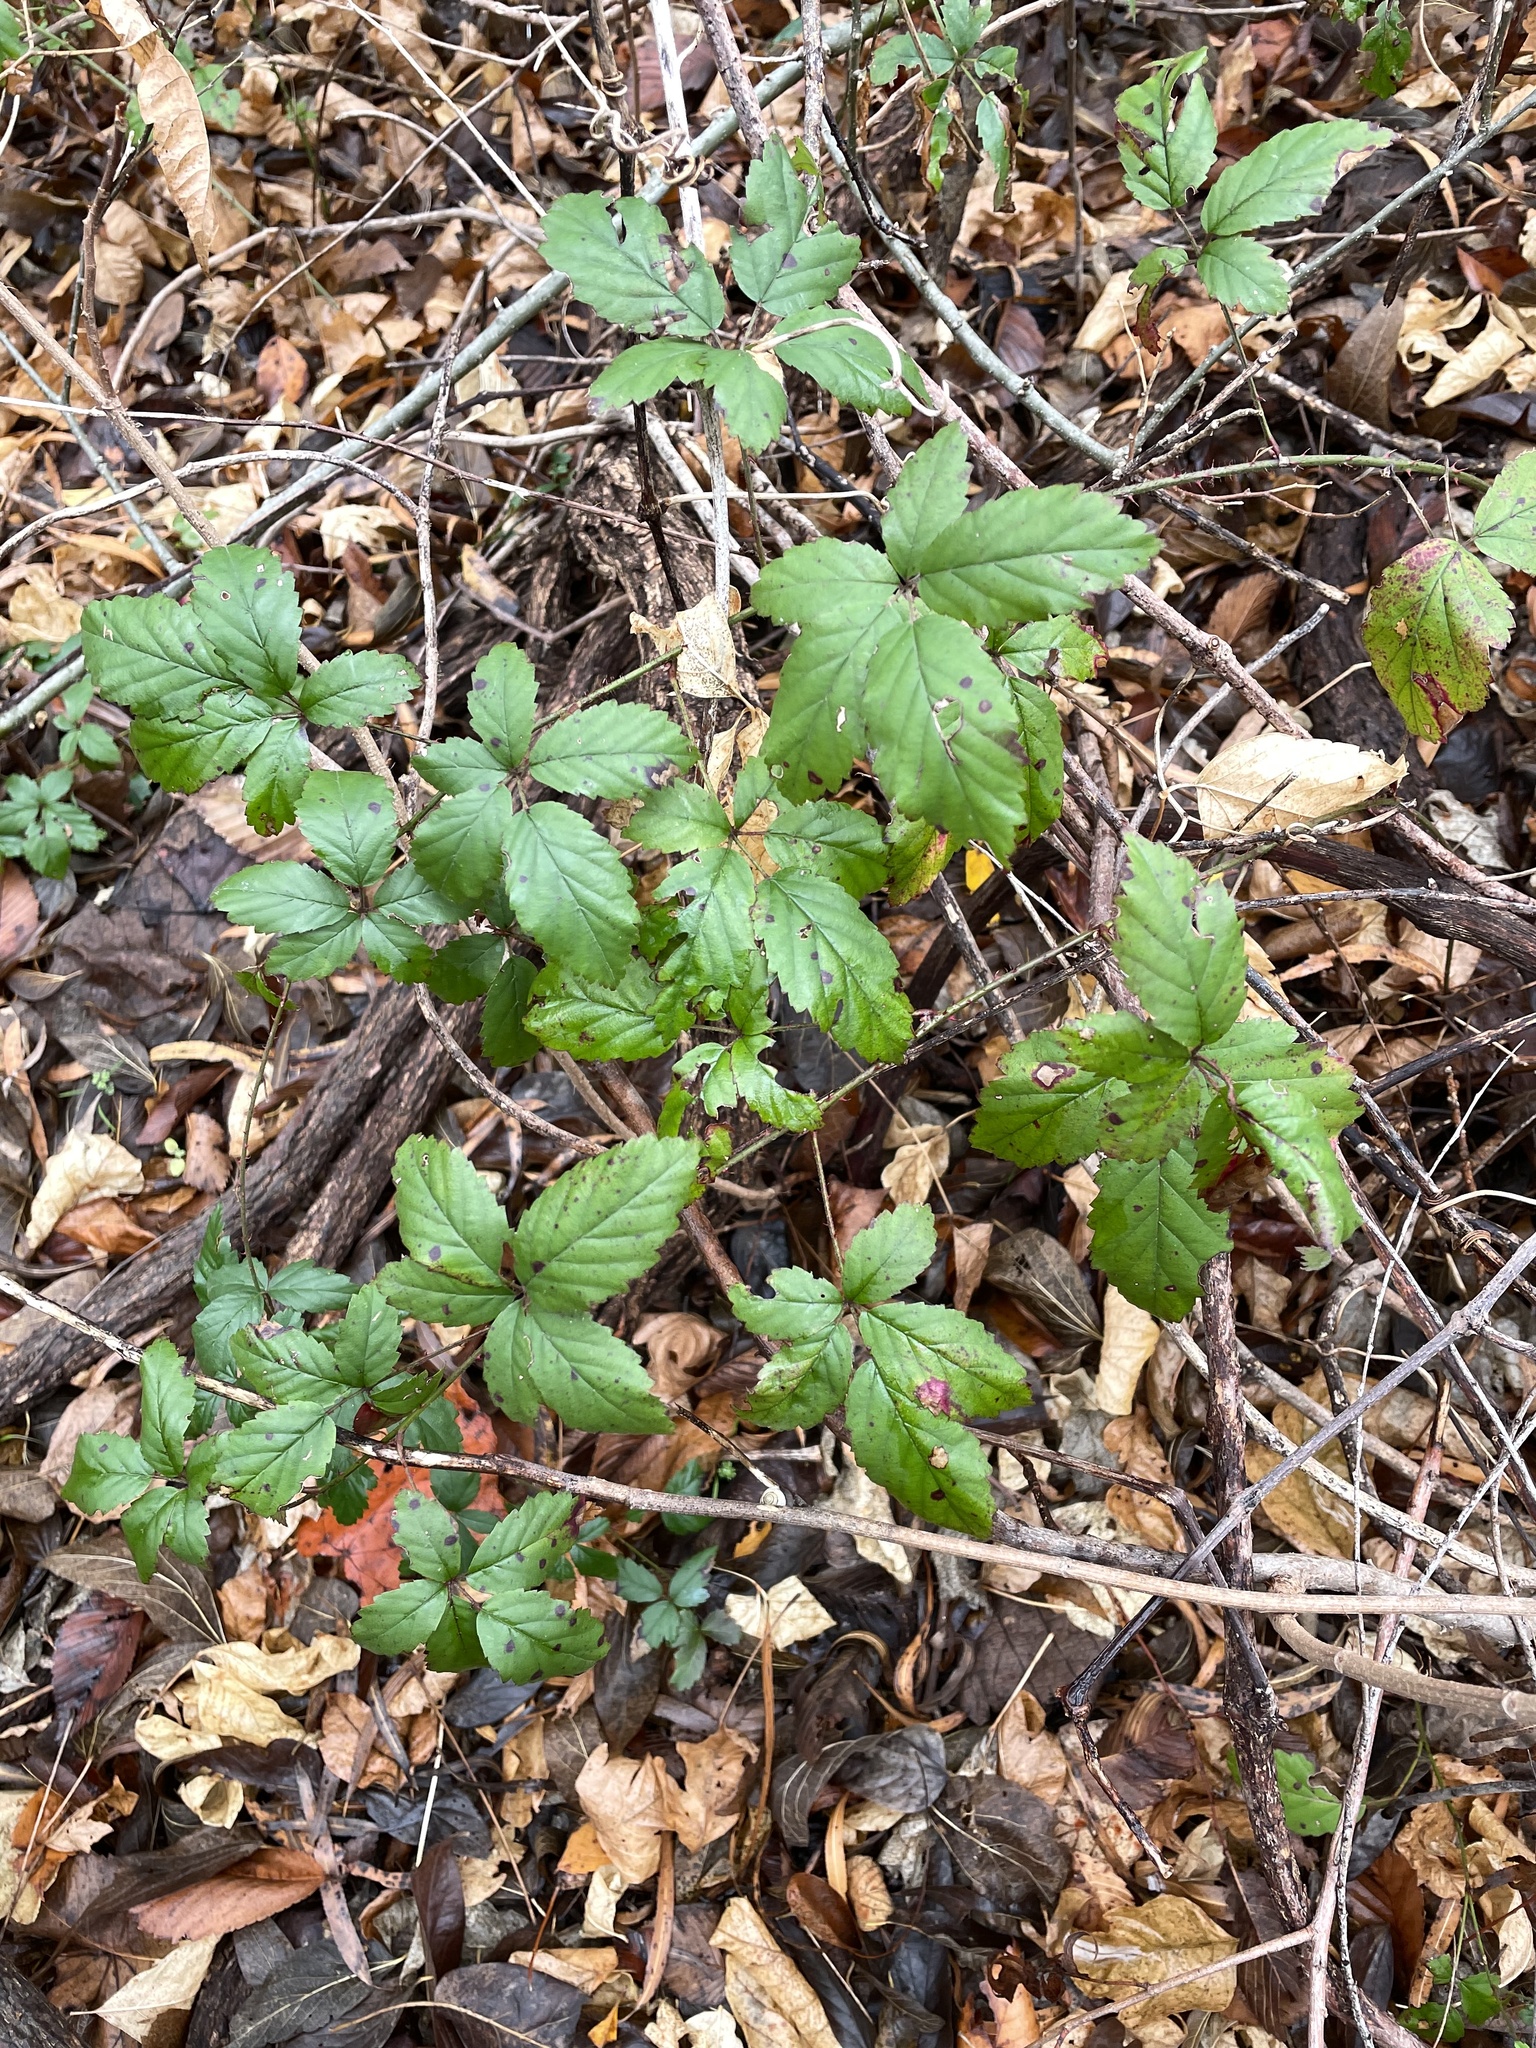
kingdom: Plantae
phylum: Tracheophyta
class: Magnoliopsida
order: Rosales
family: Rosaceae
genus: Rubus
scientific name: Rubus trivialis
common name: Southern dewberry
